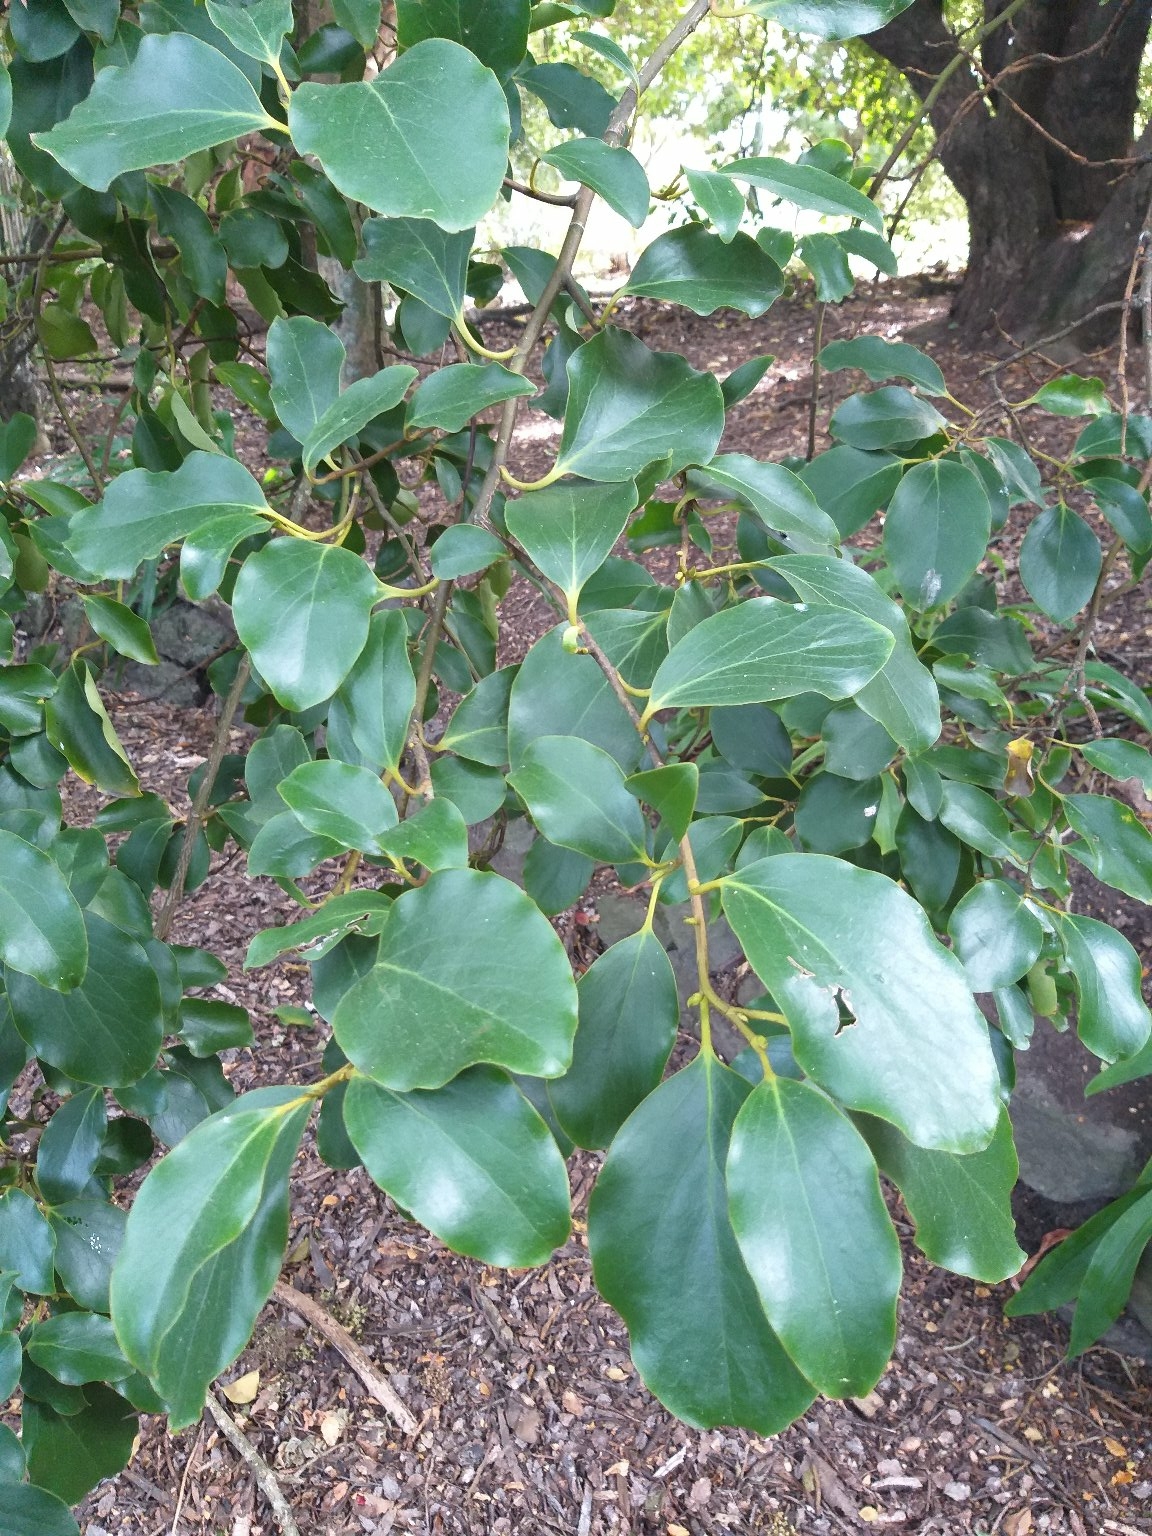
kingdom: Plantae
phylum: Tracheophyta
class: Magnoliopsida
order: Apiales
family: Griseliniaceae
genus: Griselinia
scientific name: Griselinia littoralis
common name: New zealand broadleaf
